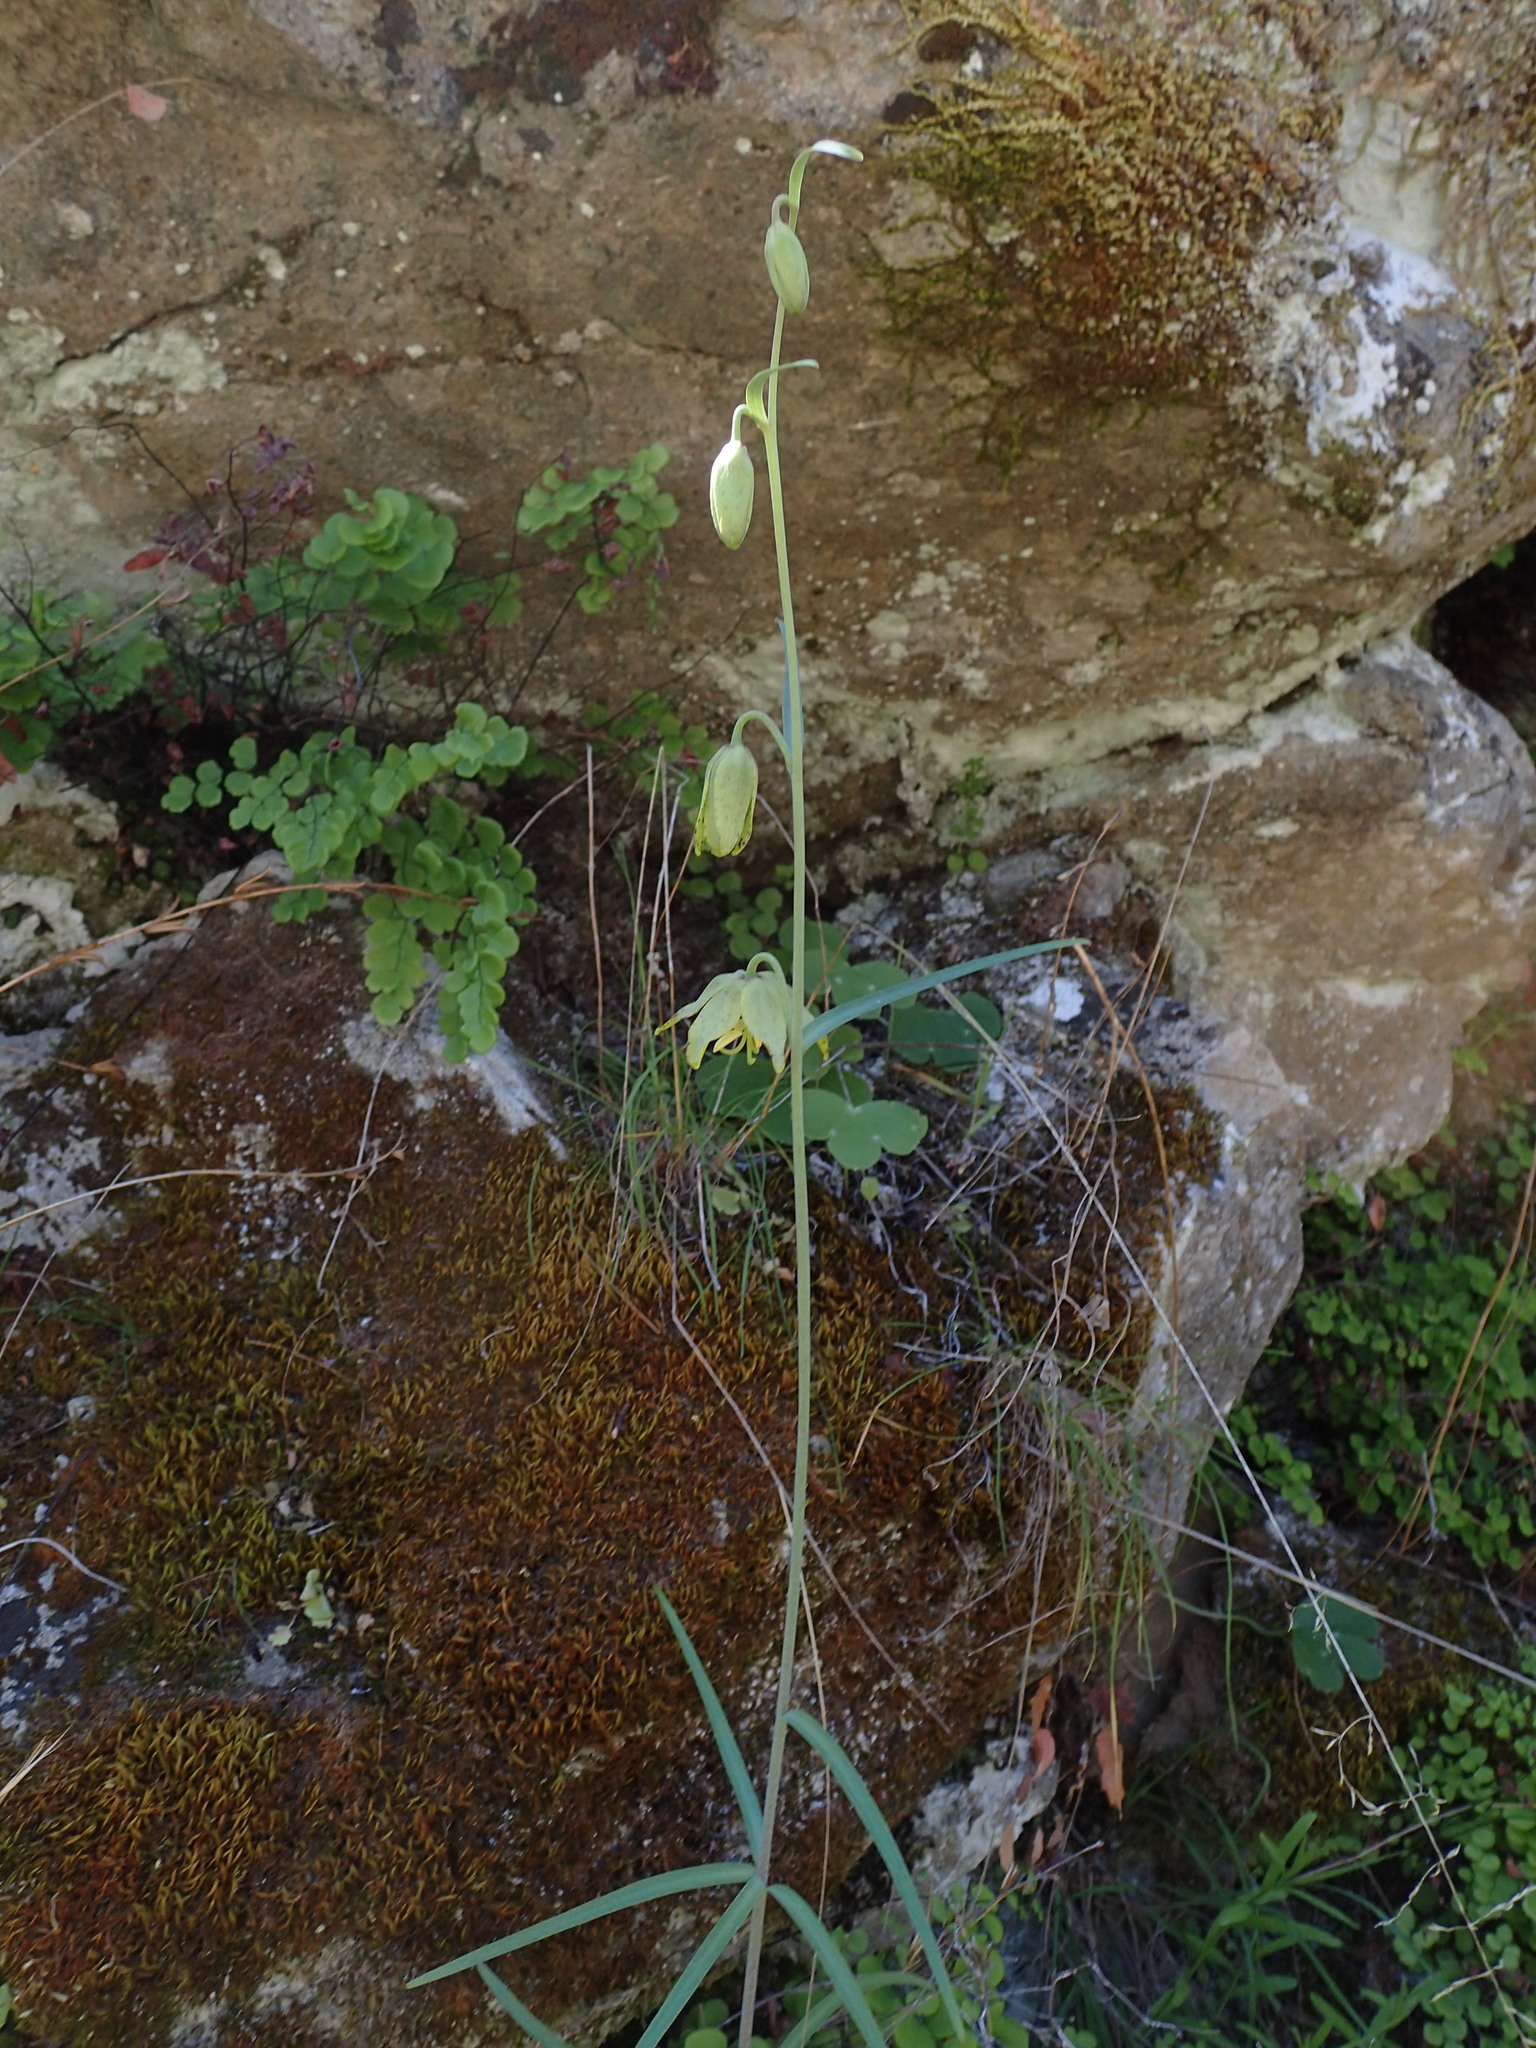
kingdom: Plantae
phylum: Tracheophyta
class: Liliopsida
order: Liliales
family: Liliaceae
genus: Fritillaria
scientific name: Fritillaria ojaiensis
